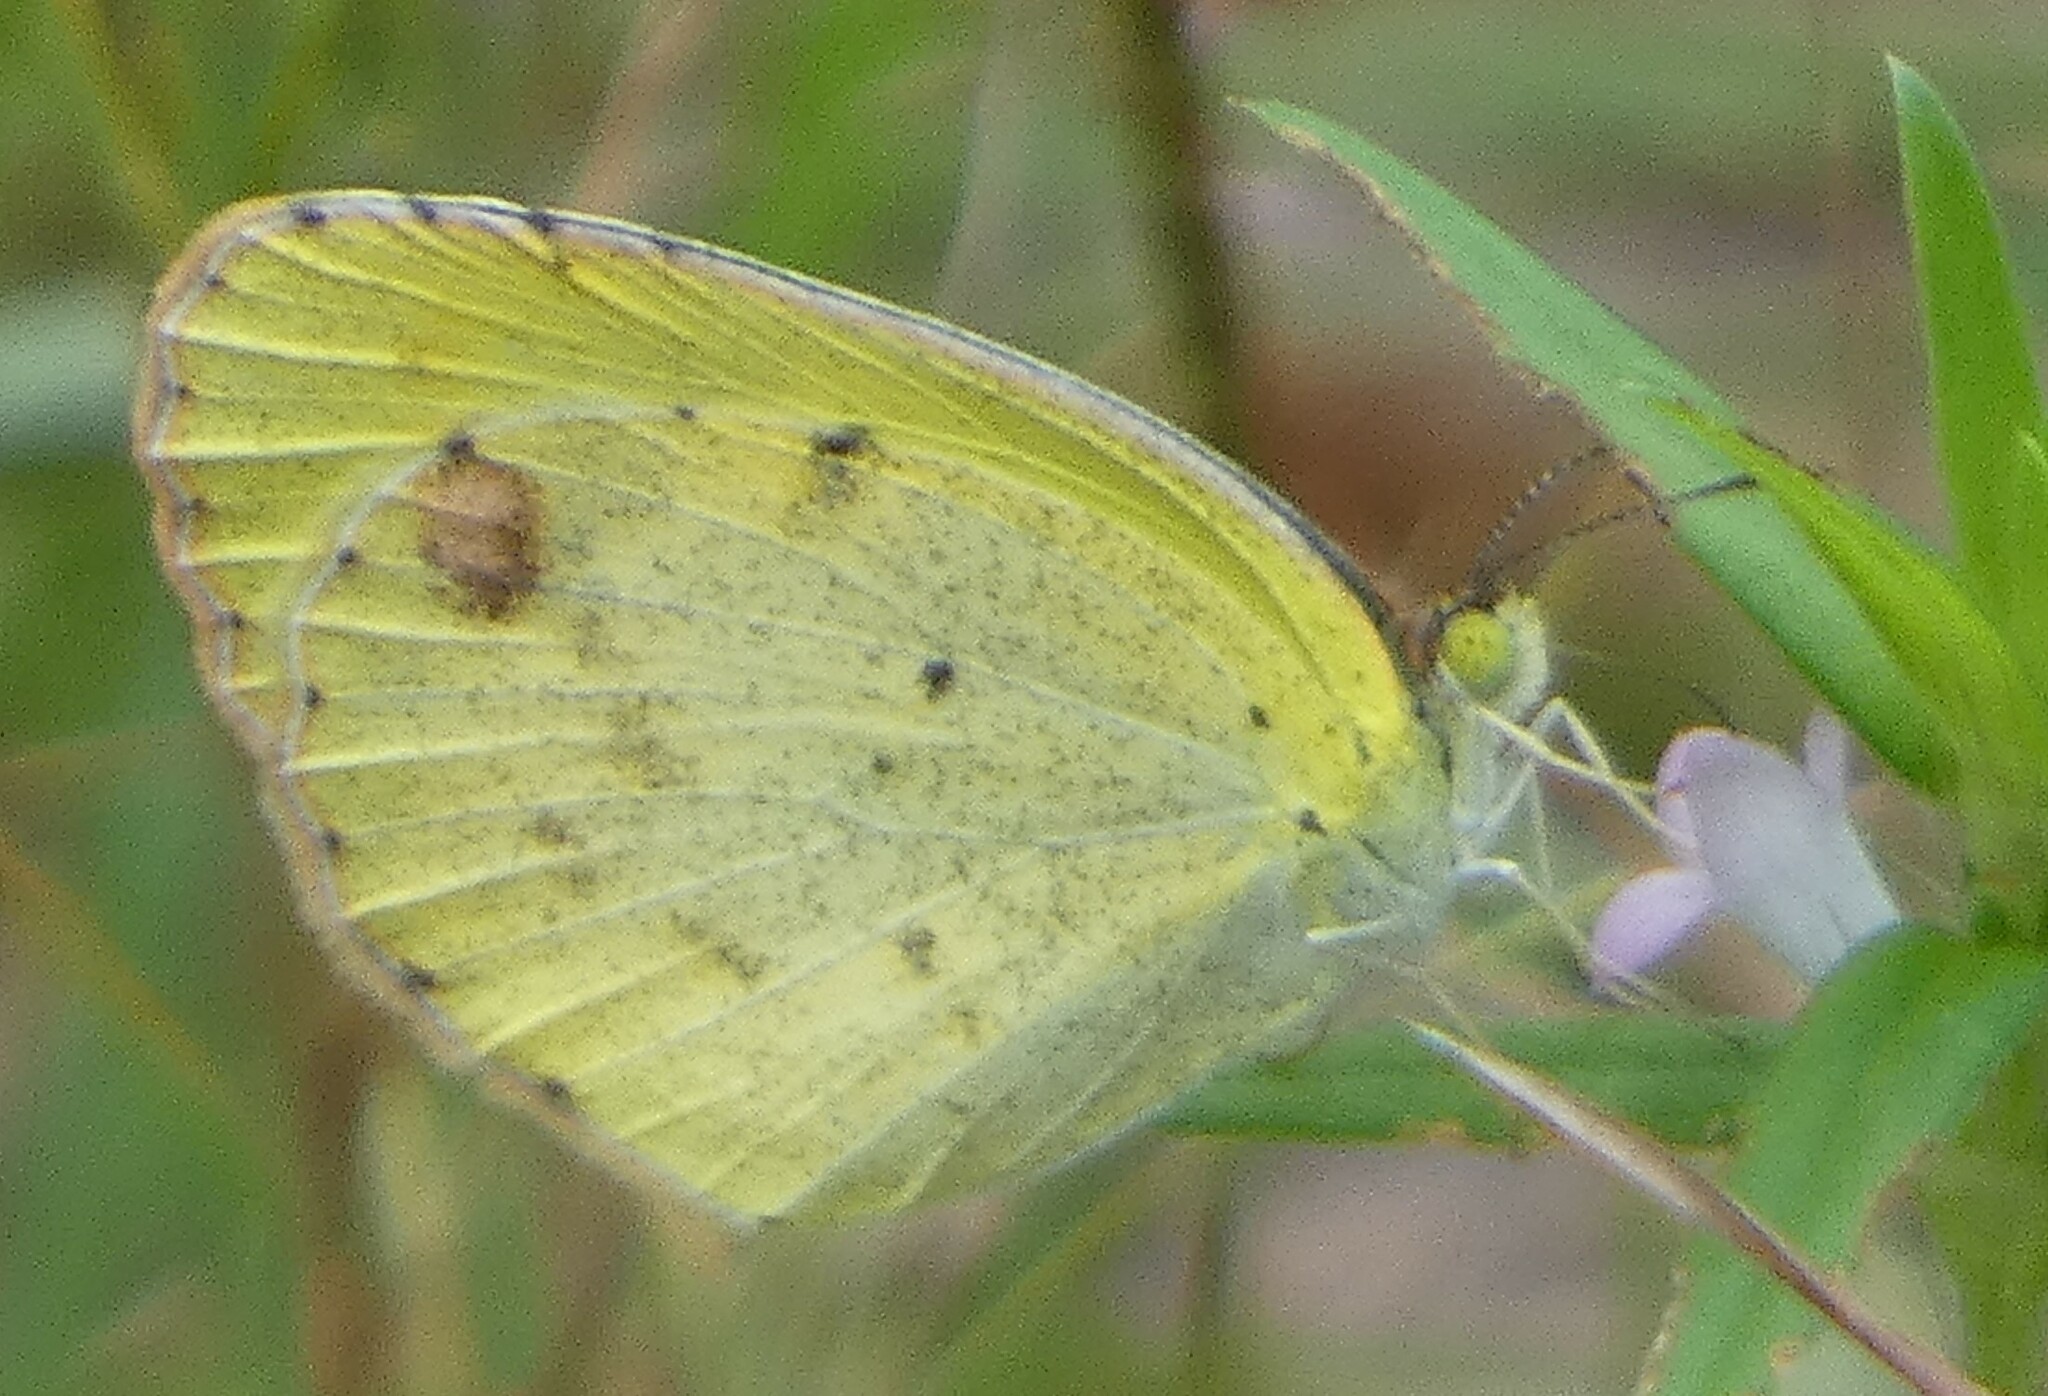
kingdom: Animalia
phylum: Arthropoda
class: Insecta
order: Lepidoptera
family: Pieridae
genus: Pyrisitia
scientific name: Pyrisitia lisa
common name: Little yellow
